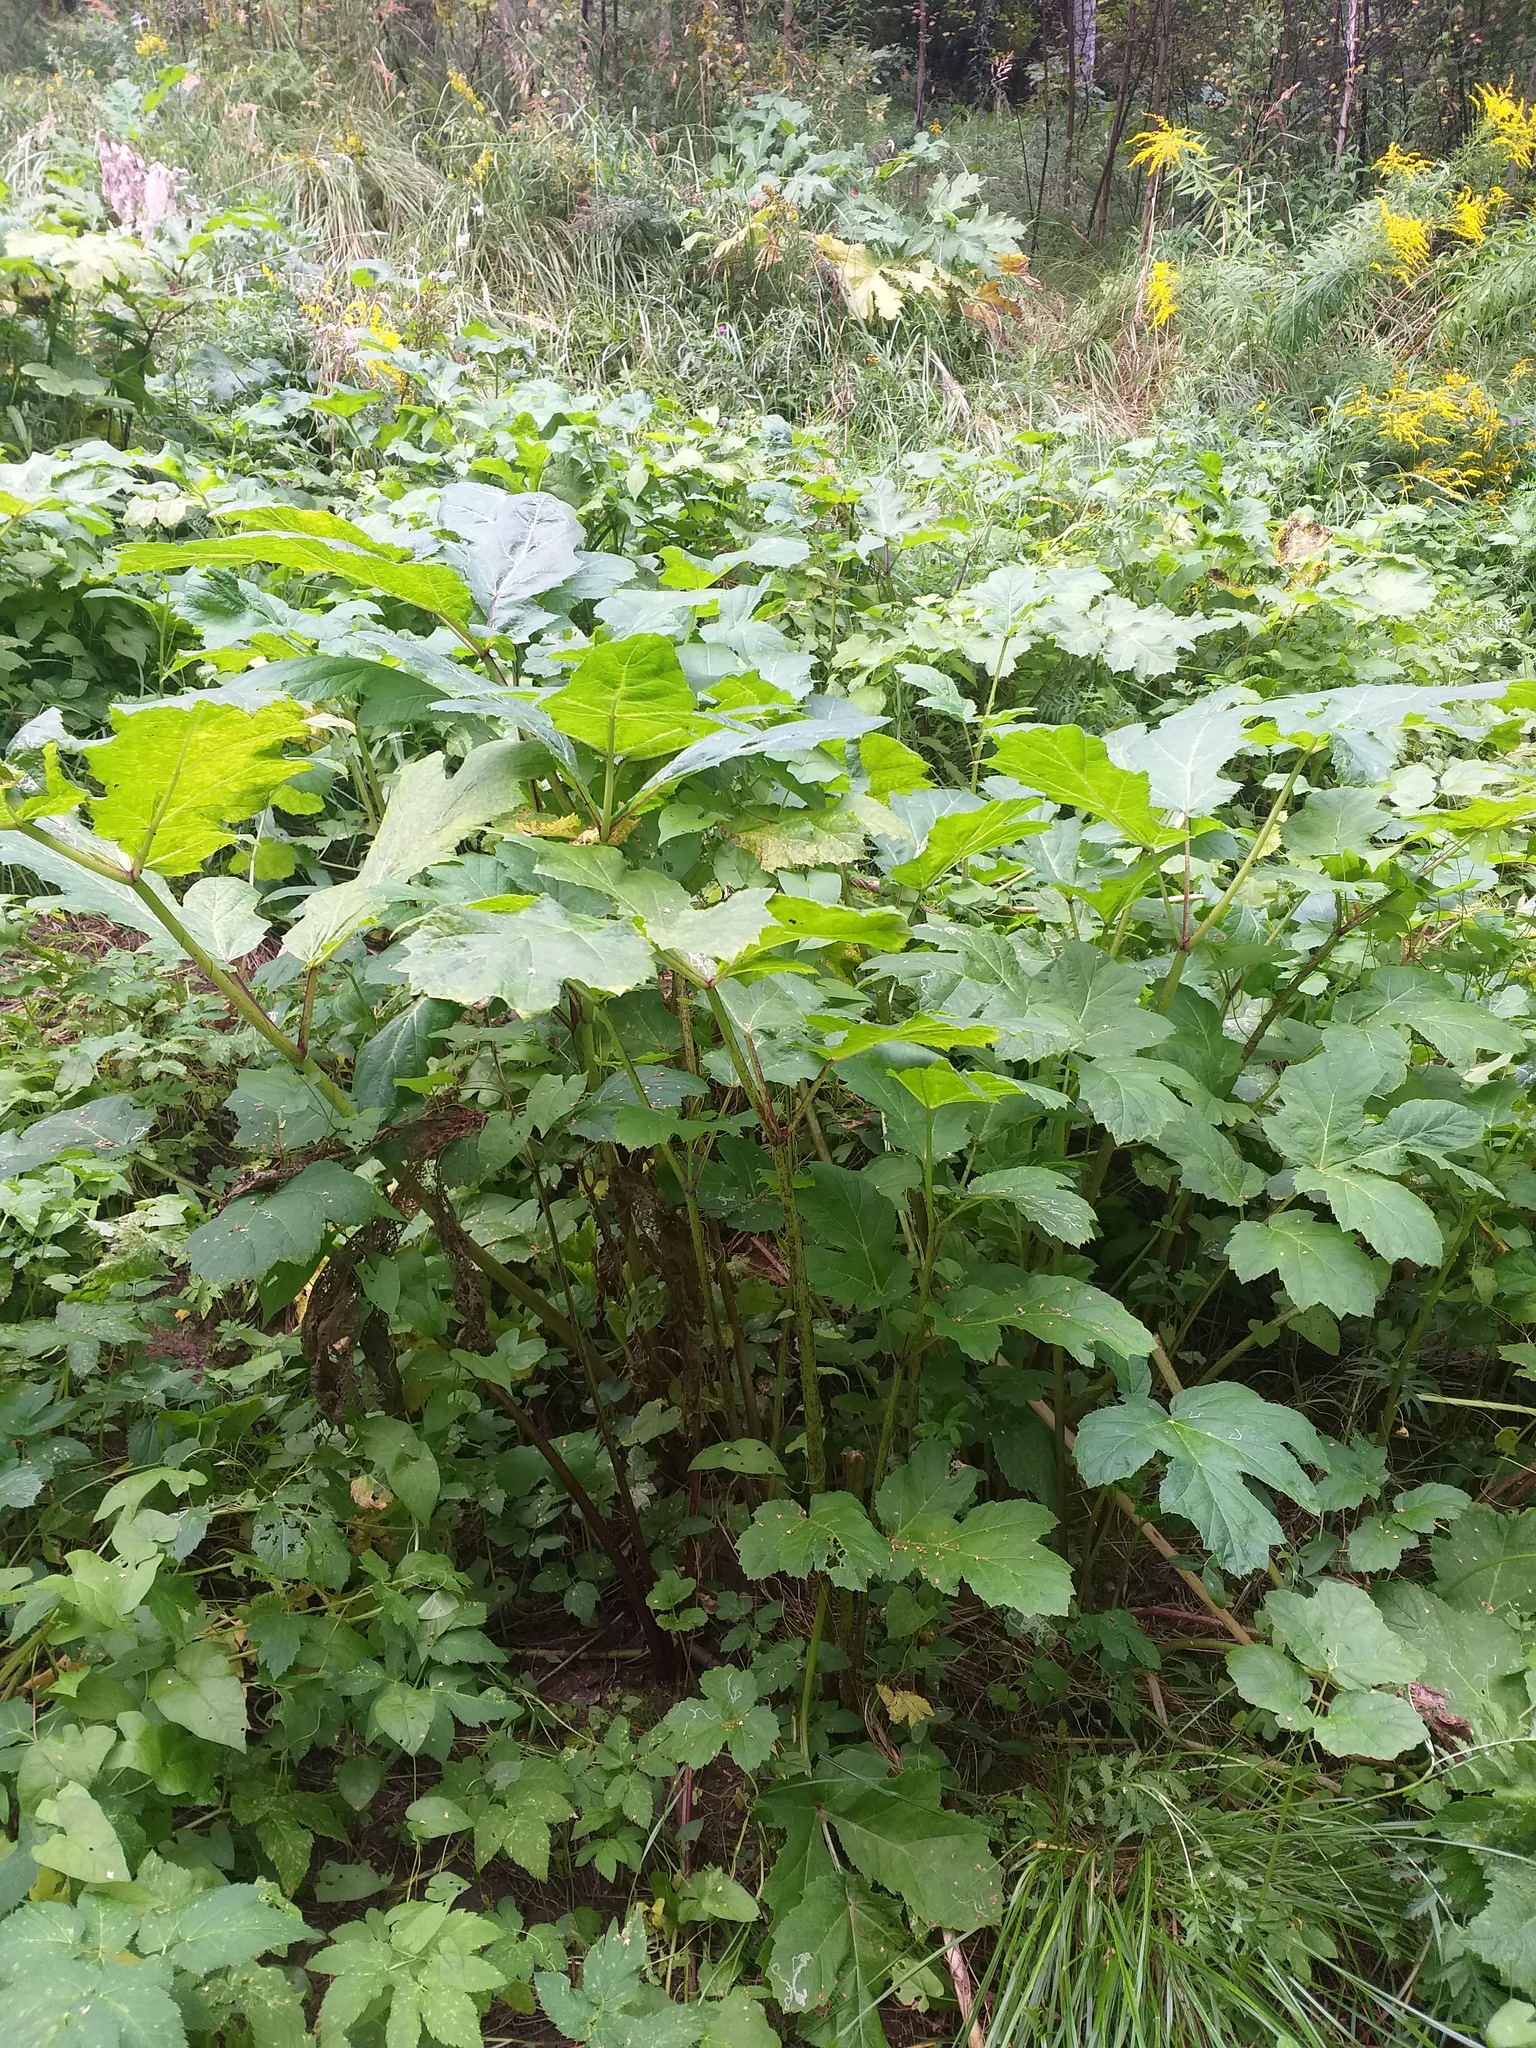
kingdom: Plantae
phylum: Tracheophyta
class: Magnoliopsida
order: Apiales
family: Apiaceae
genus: Heracleum
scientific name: Heracleum sosnowskyi
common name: Sosnowsky's hogweed
